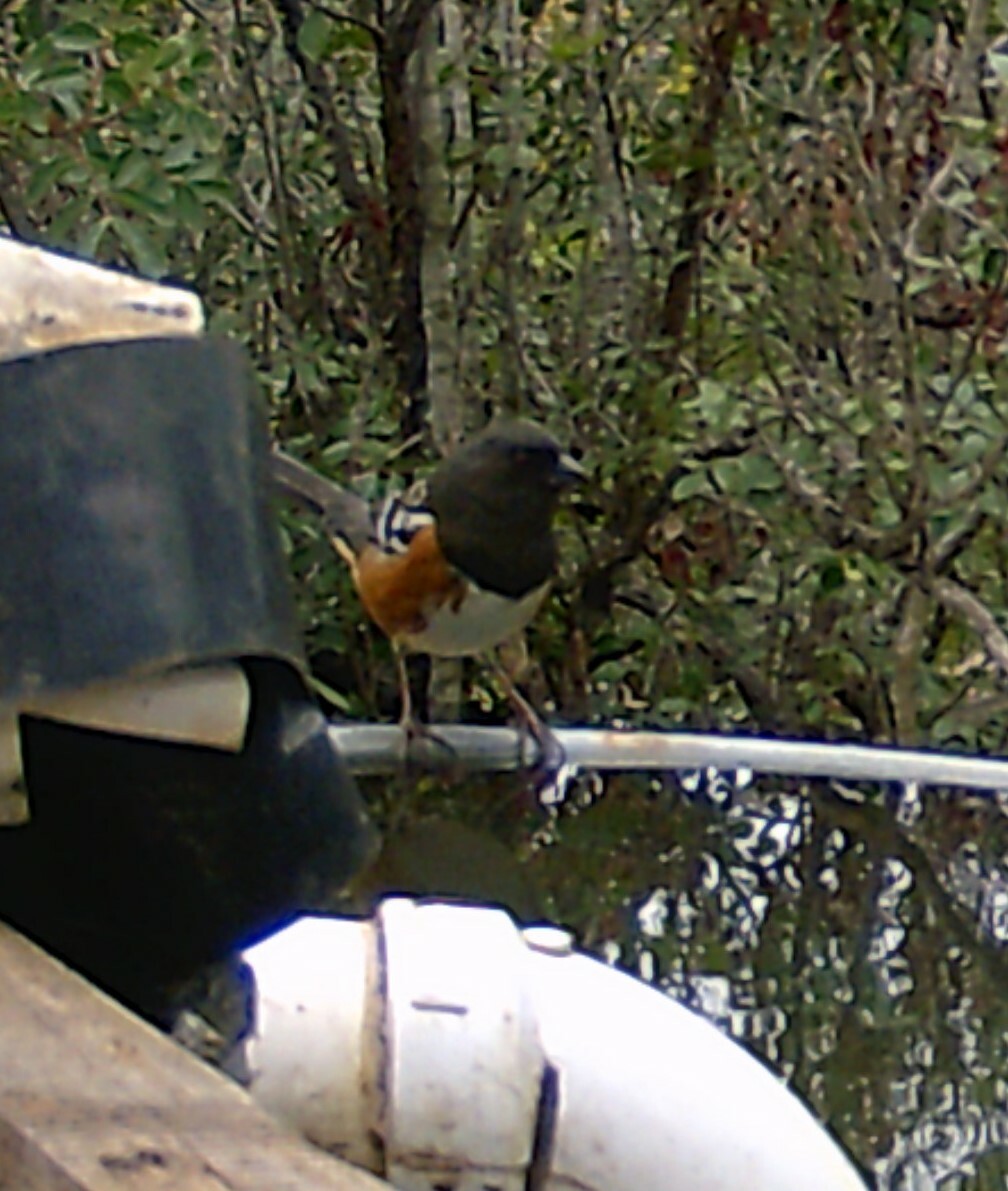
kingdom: Animalia
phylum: Chordata
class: Aves
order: Passeriformes
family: Passerellidae
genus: Pipilo
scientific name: Pipilo maculatus
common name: Spotted towhee
